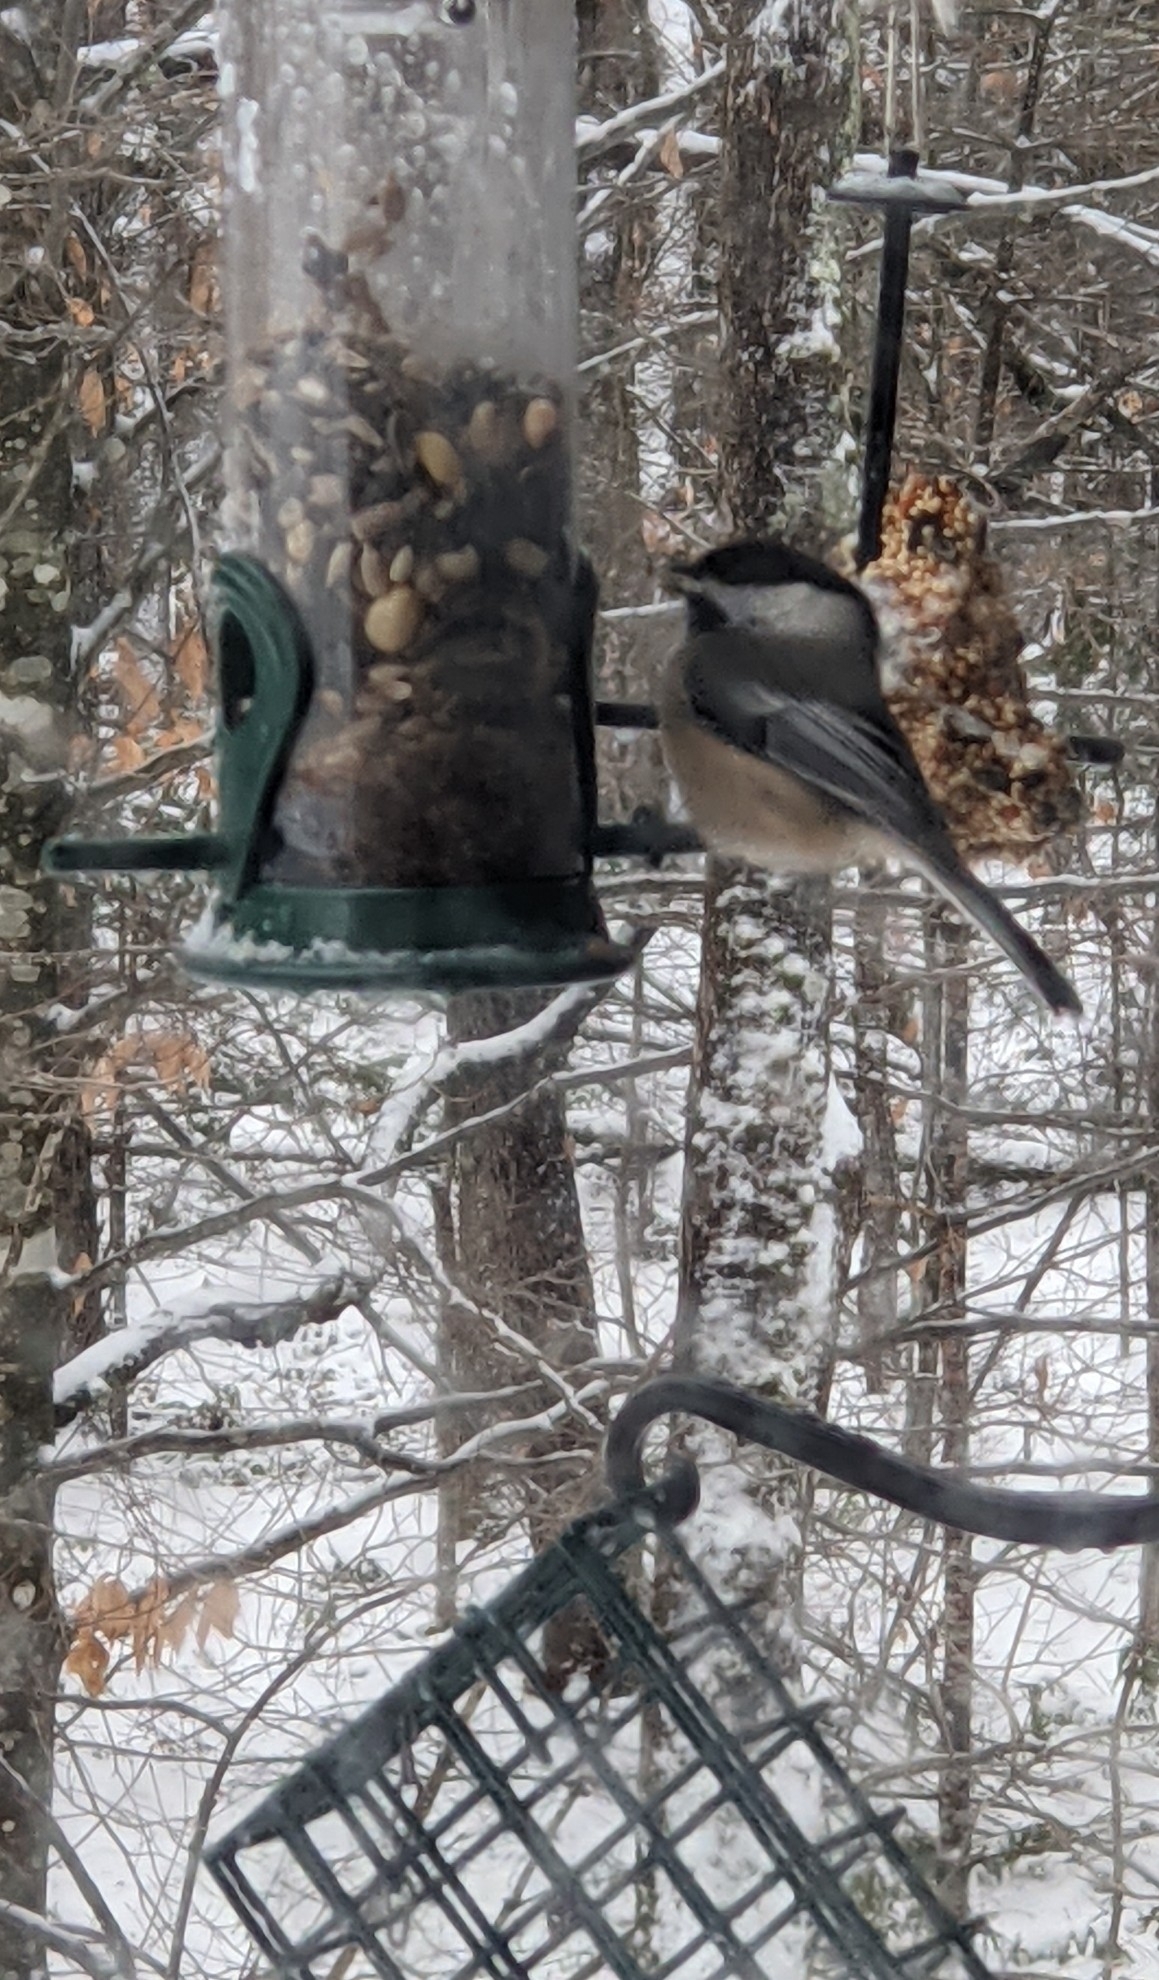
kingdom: Animalia
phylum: Chordata
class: Aves
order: Passeriformes
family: Paridae
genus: Poecile
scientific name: Poecile atricapillus
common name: Black-capped chickadee
